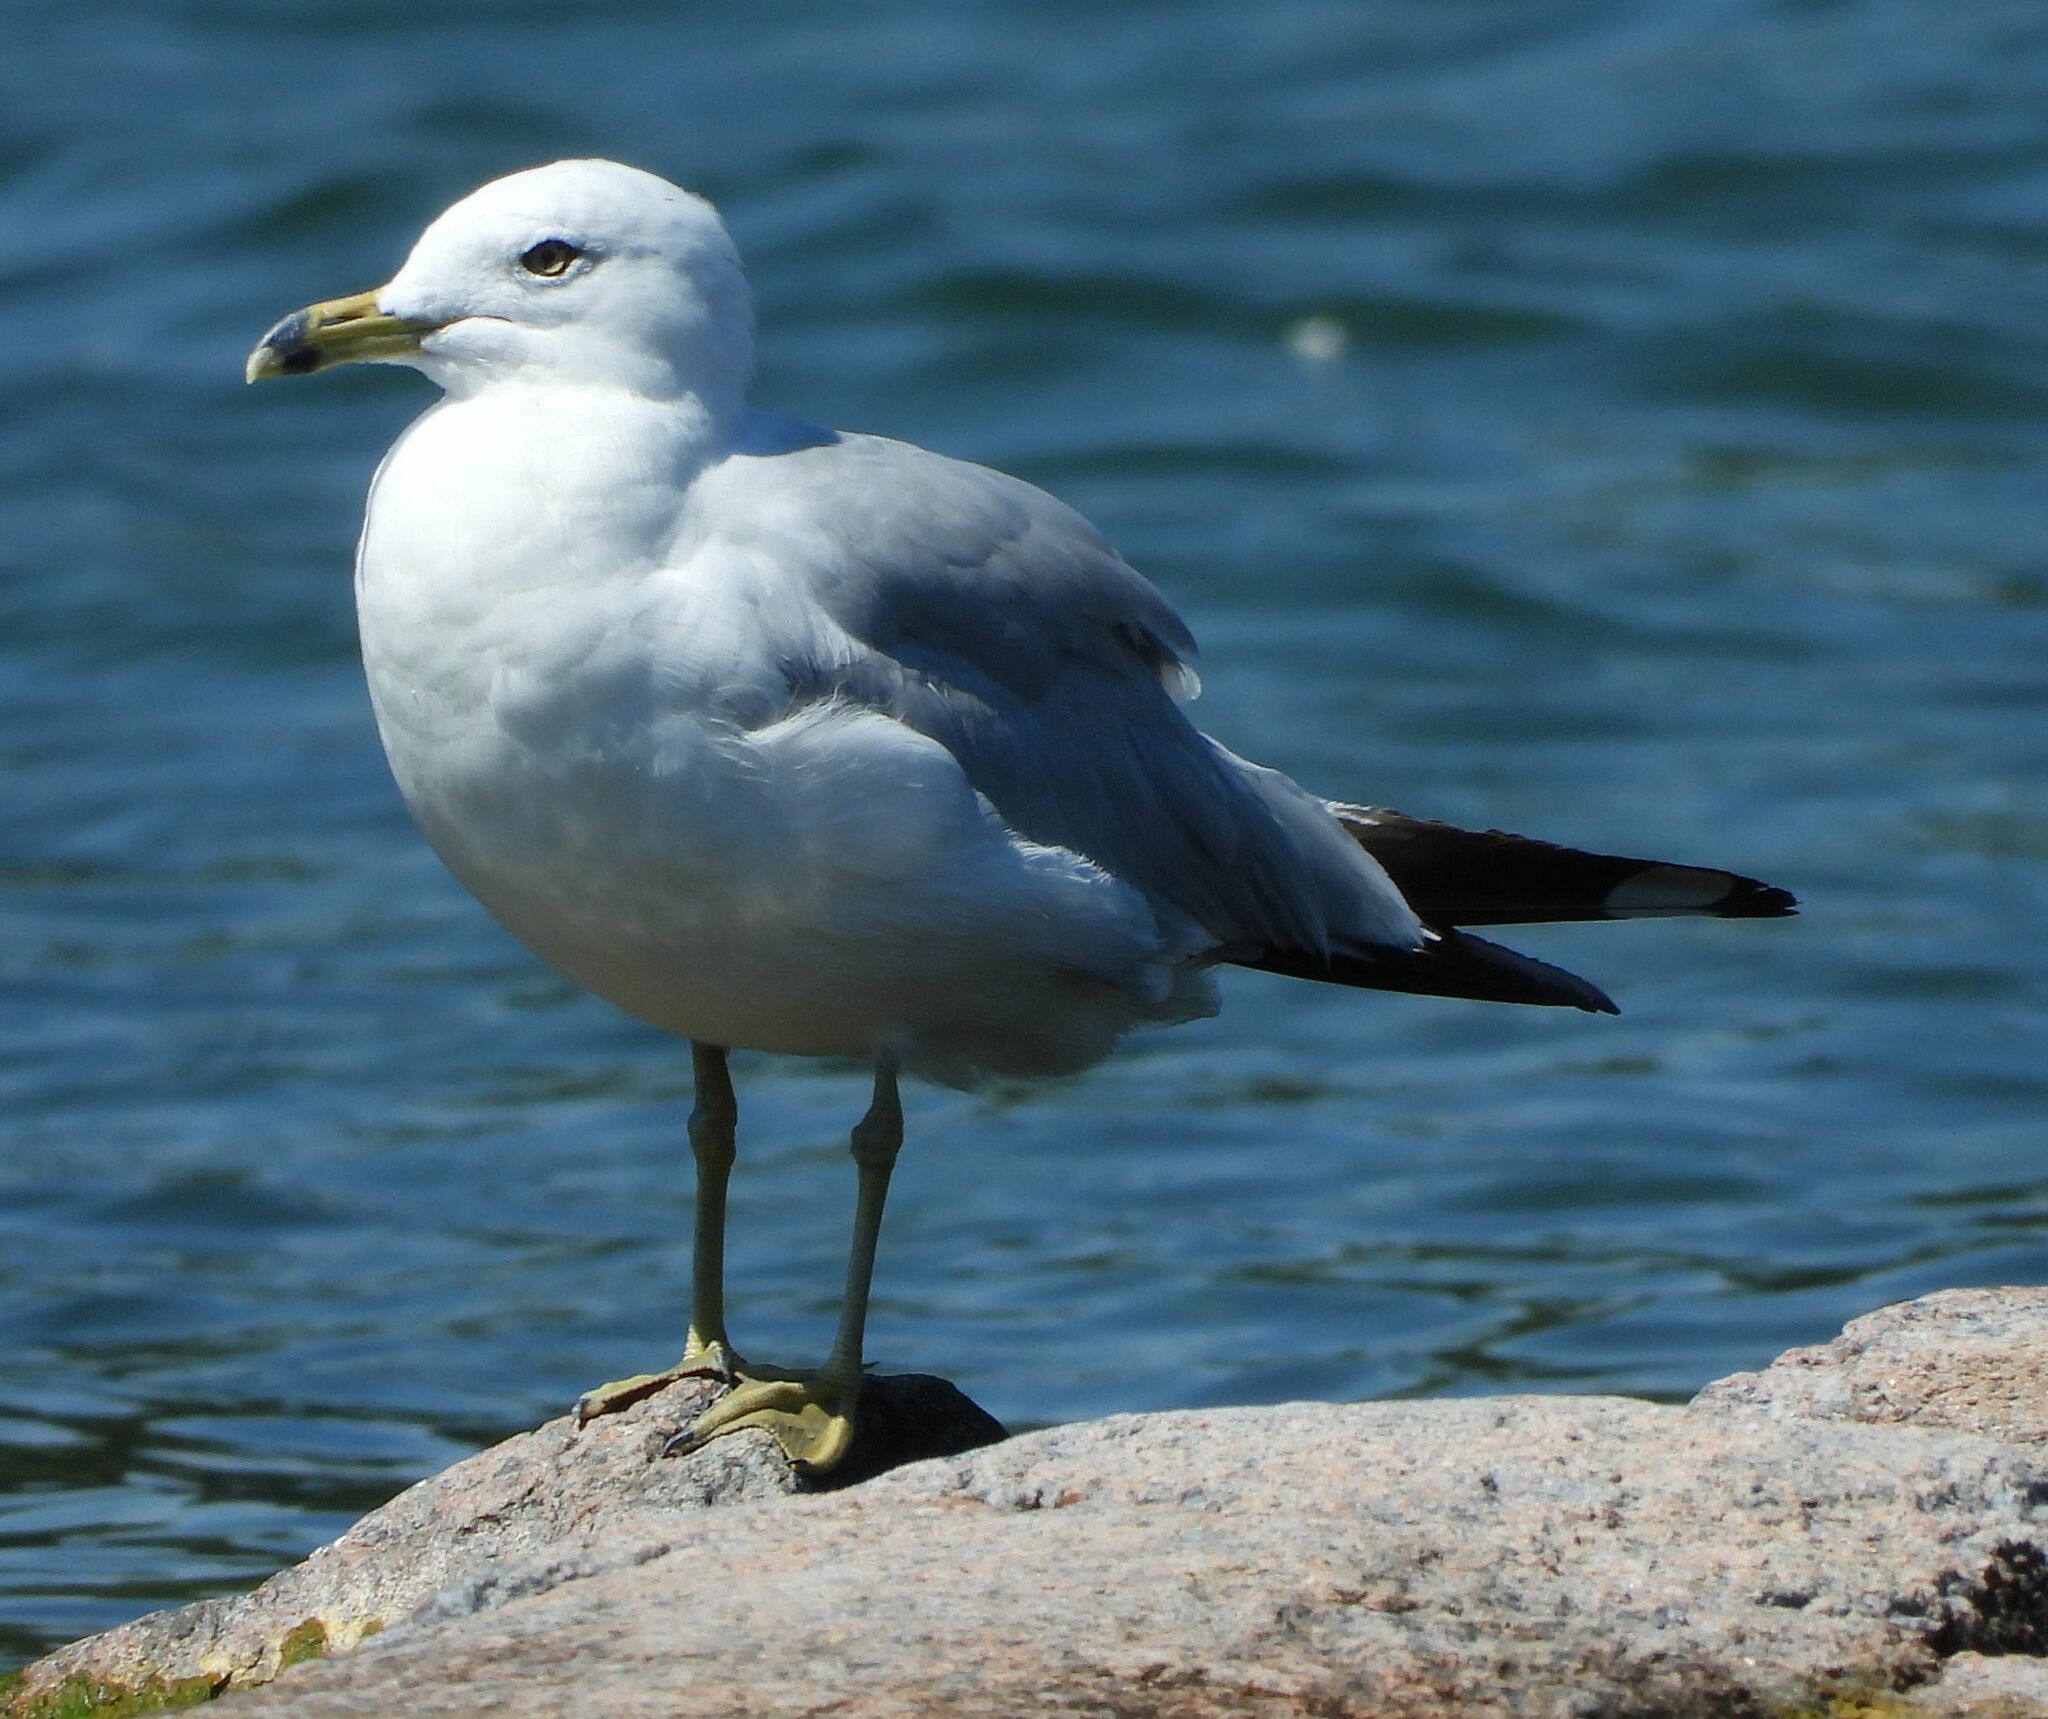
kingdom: Animalia
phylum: Chordata
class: Aves
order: Charadriiformes
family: Laridae
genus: Larus
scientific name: Larus delawarensis
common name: Ring-billed gull
